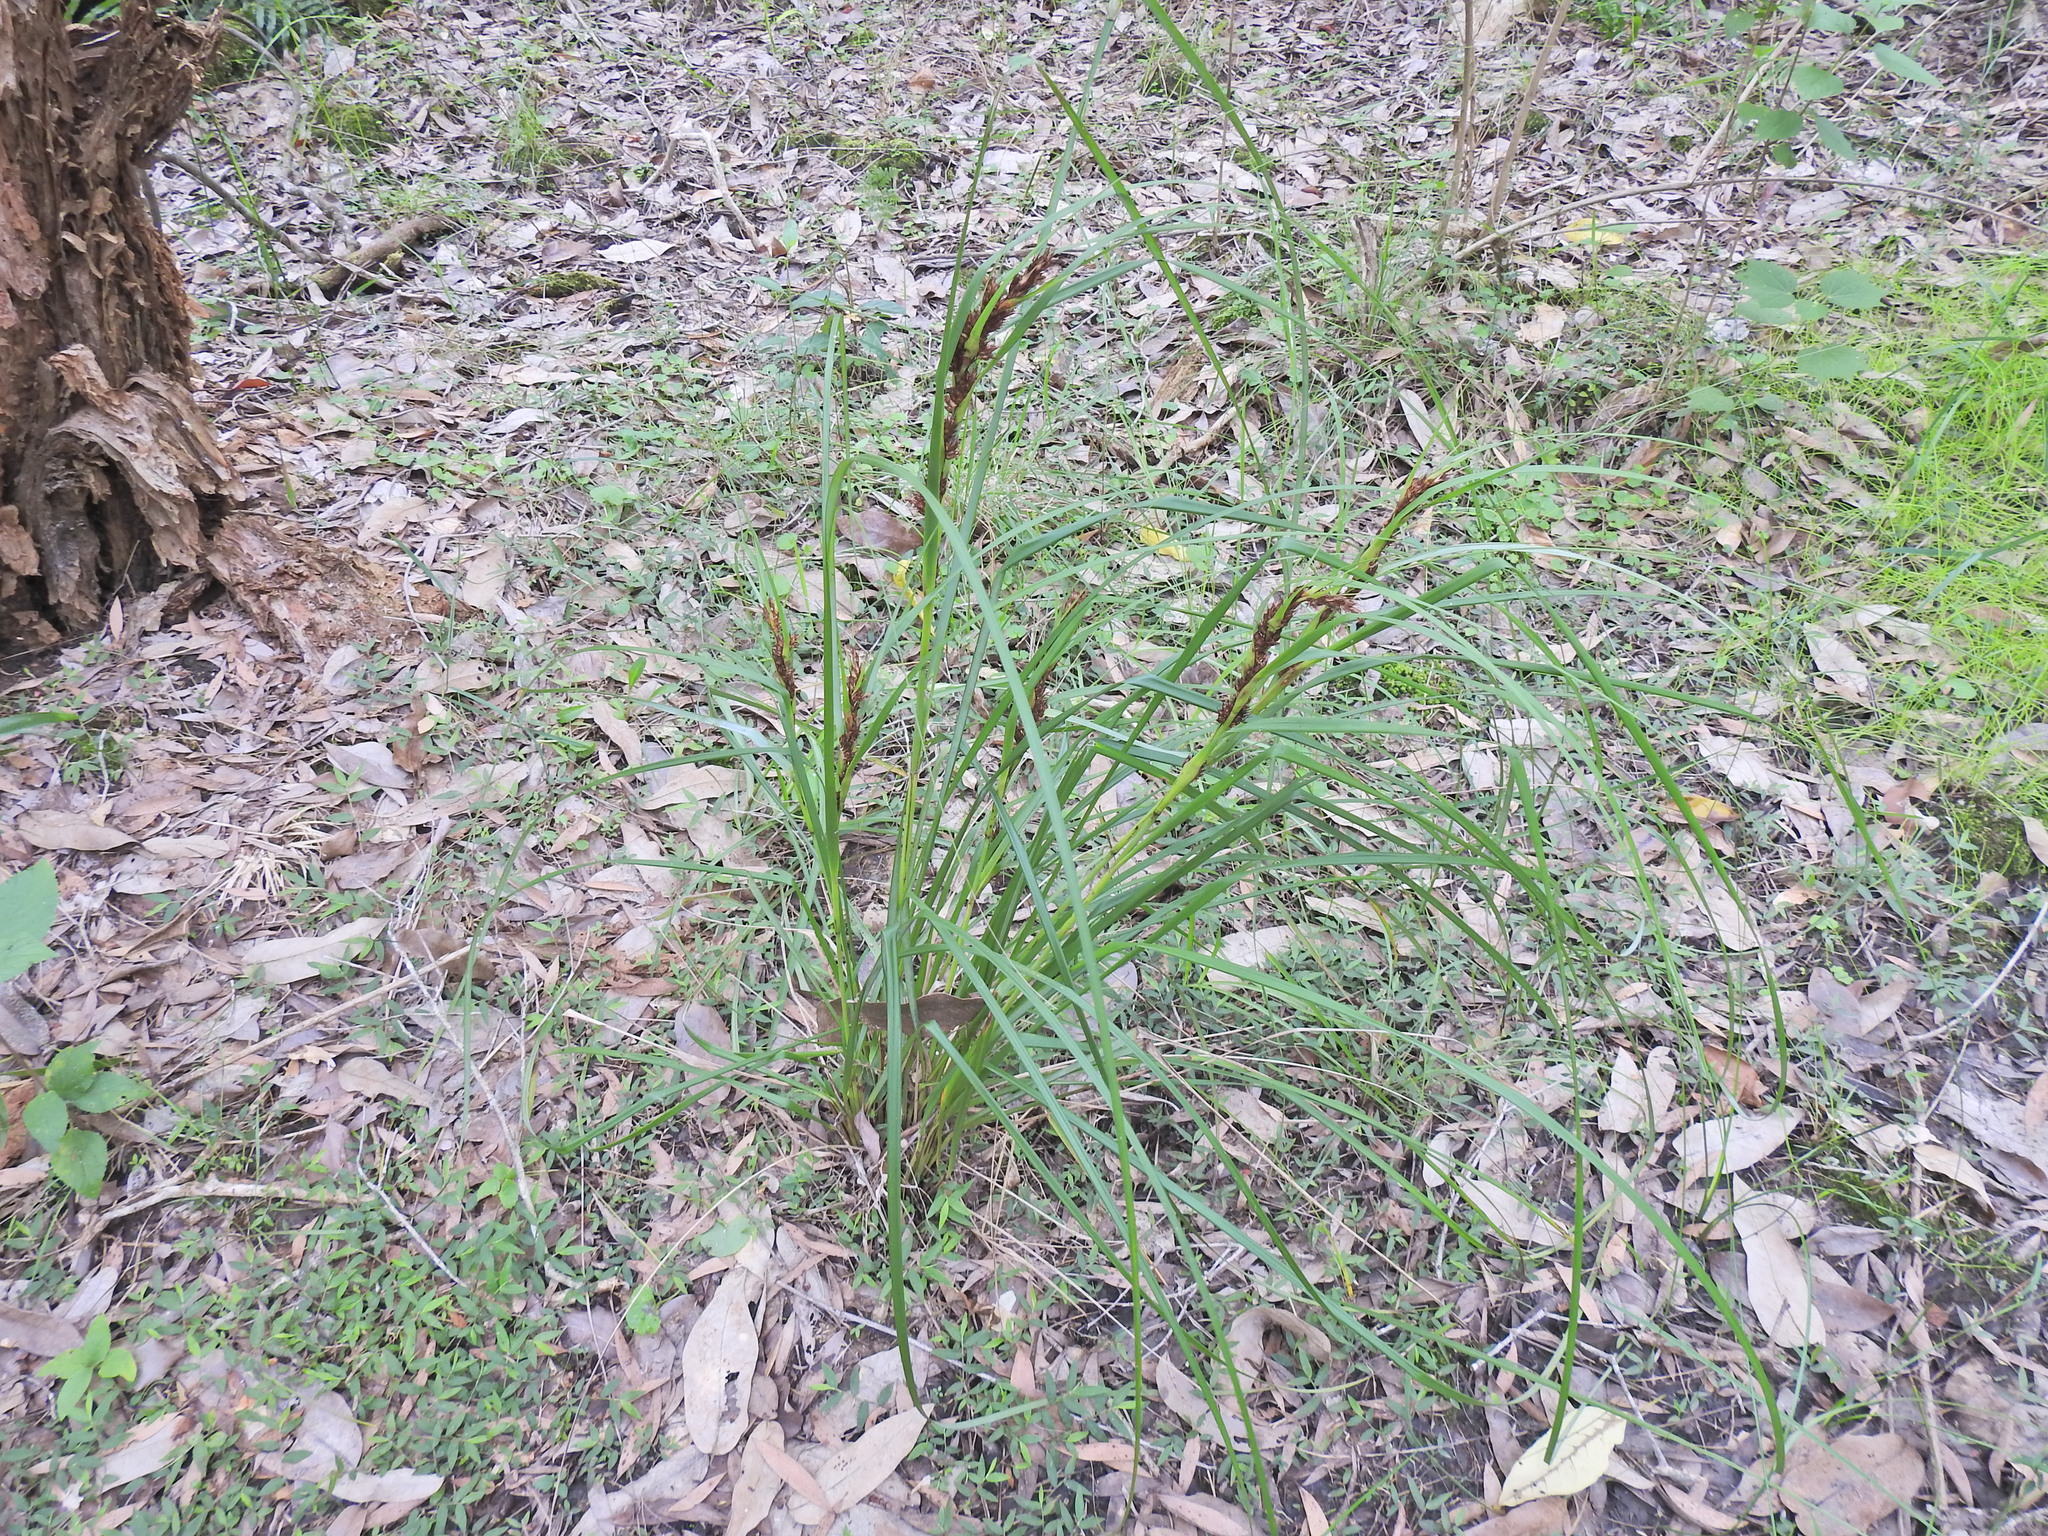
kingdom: Plantae
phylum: Tracheophyta
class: Liliopsida
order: Poales
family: Cyperaceae
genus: Gahnia
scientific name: Gahnia aspera
